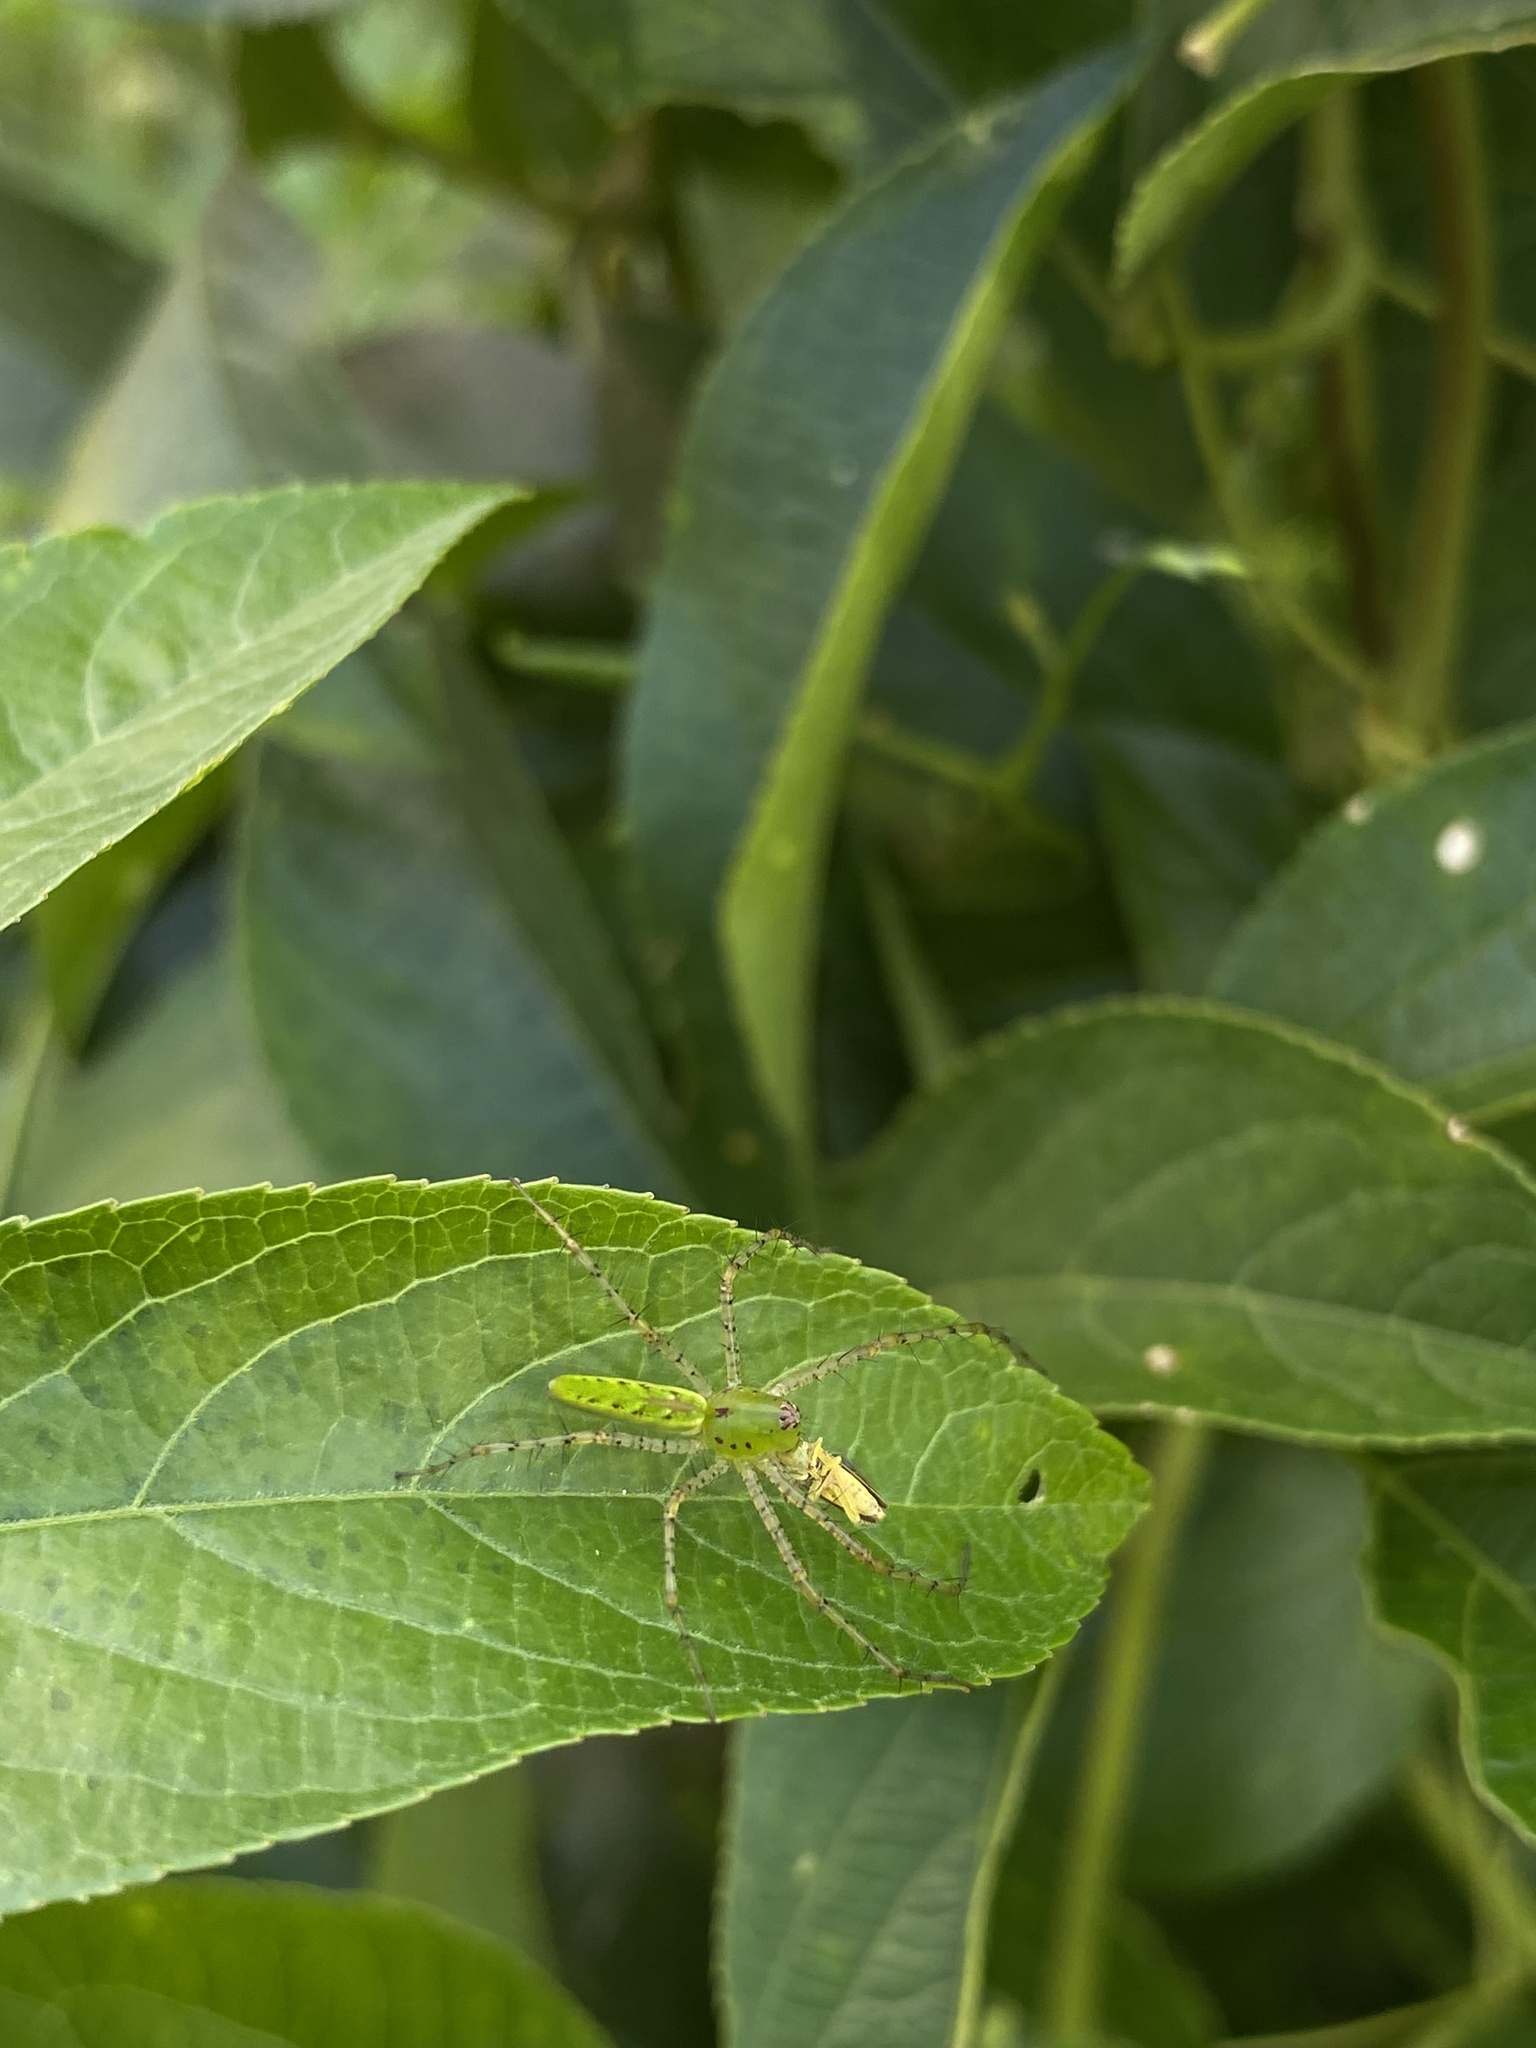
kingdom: Animalia
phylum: Arthropoda
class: Arachnida
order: Araneae
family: Oxyopidae
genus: Peucetia
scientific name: Peucetia viridans
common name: Lynx spiders
